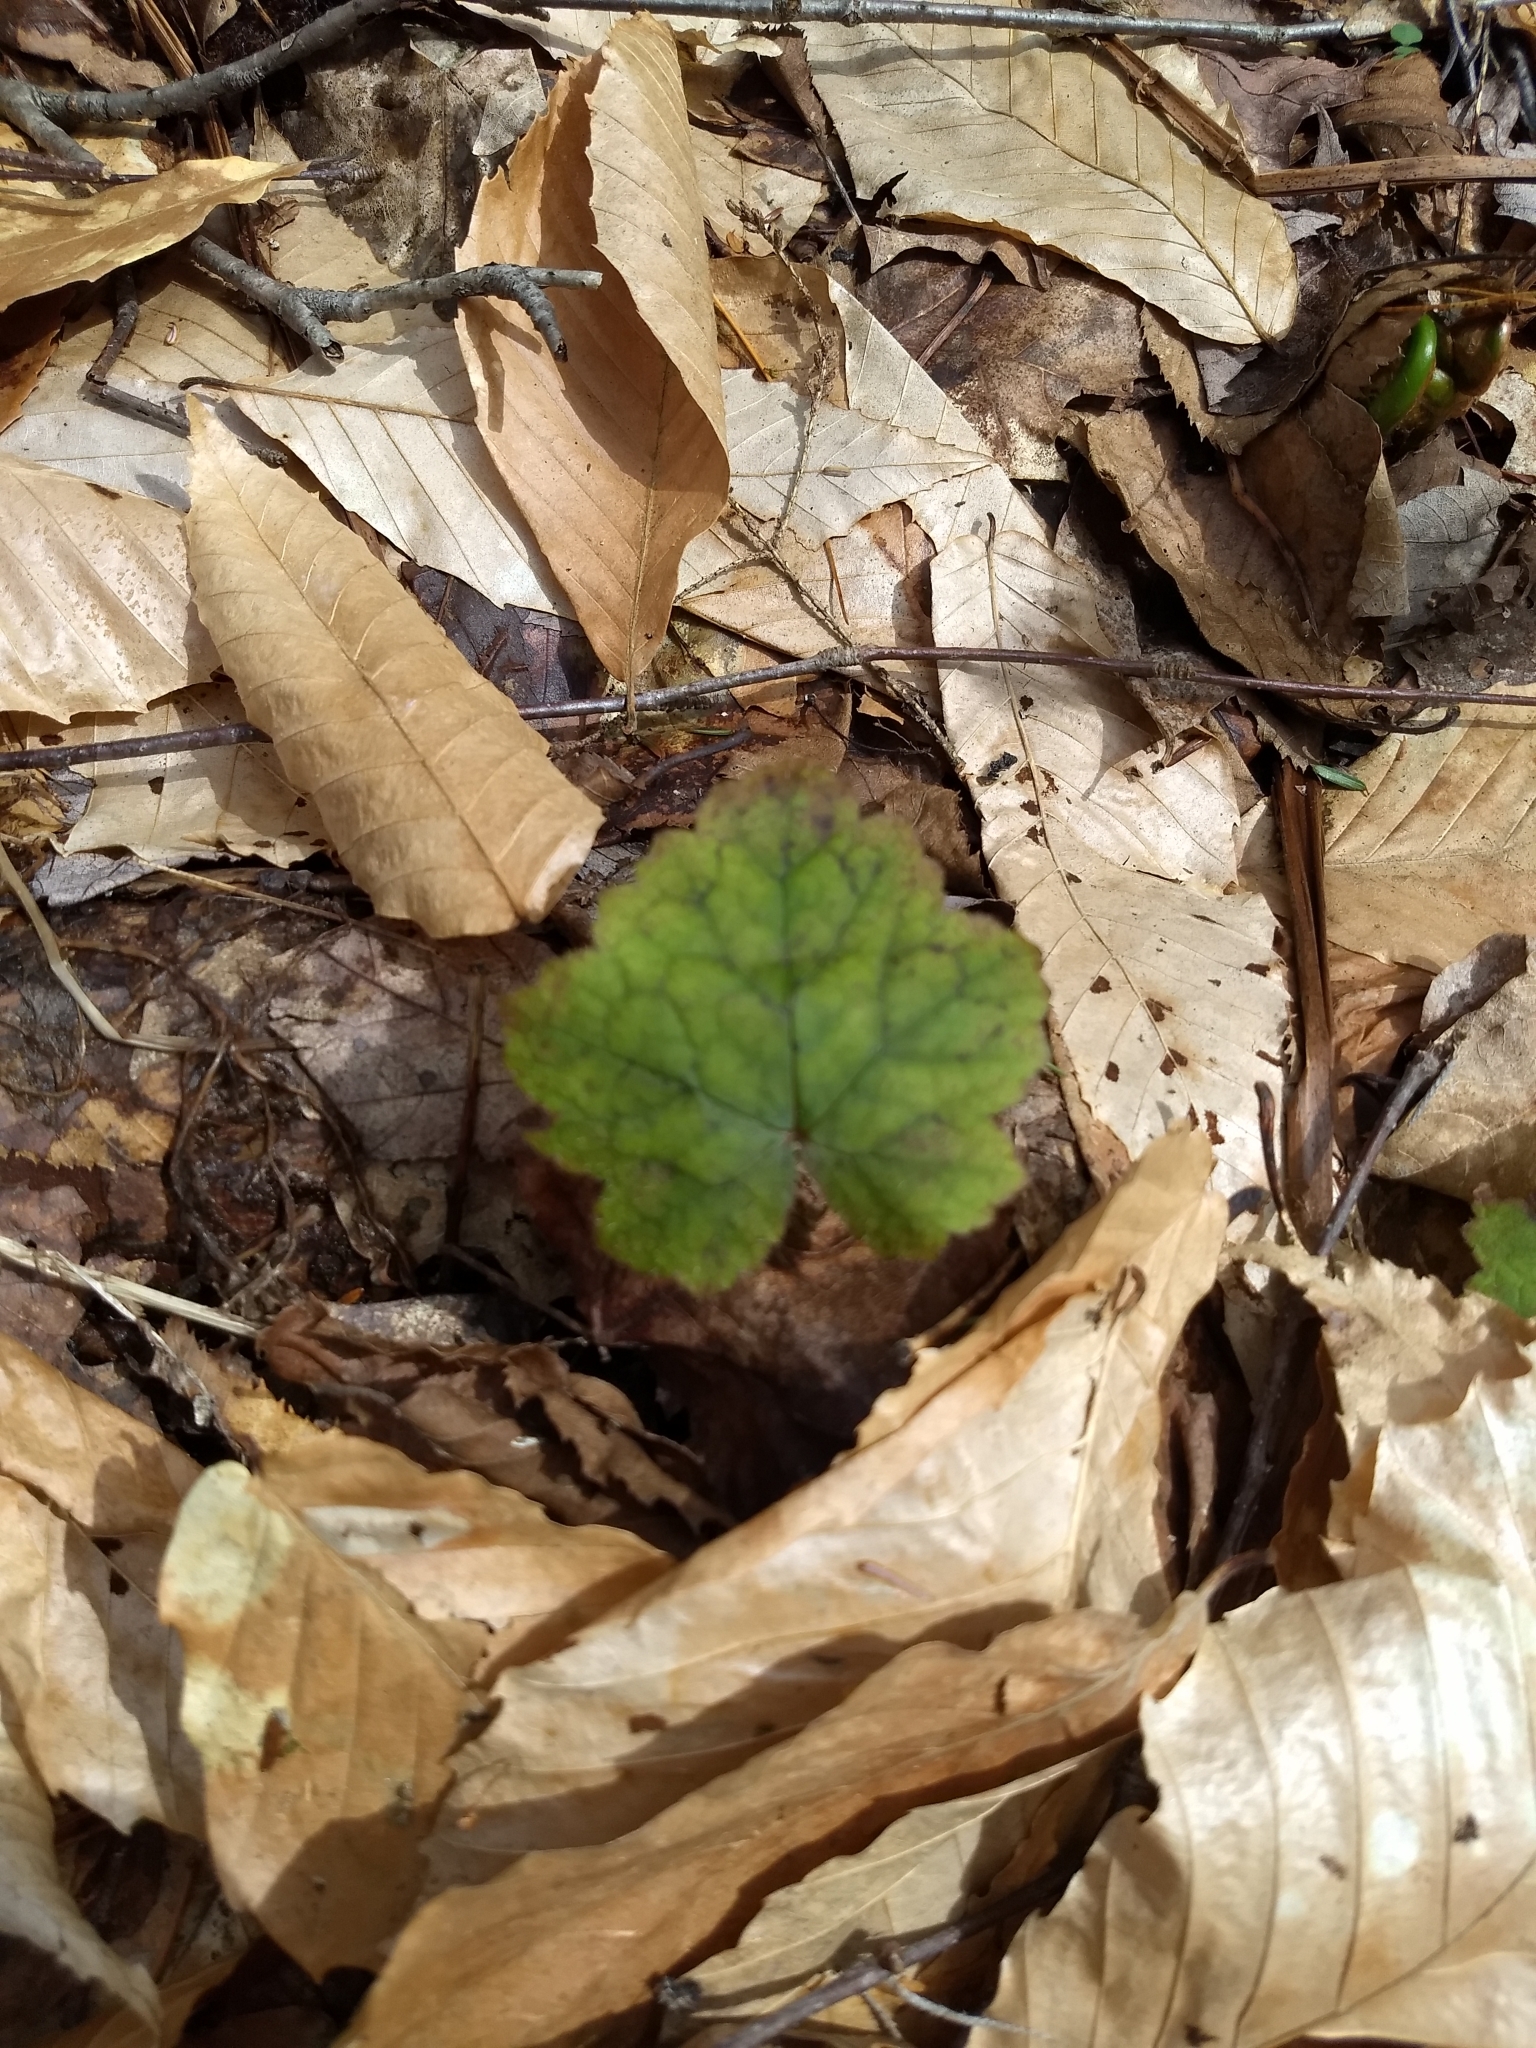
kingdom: Plantae
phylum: Tracheophyta
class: Magnoliopsida
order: Saxifragales
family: Saxifragaceae
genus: Tiarella
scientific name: Tiarella stolonifera
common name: Stoloniferous foamflower
